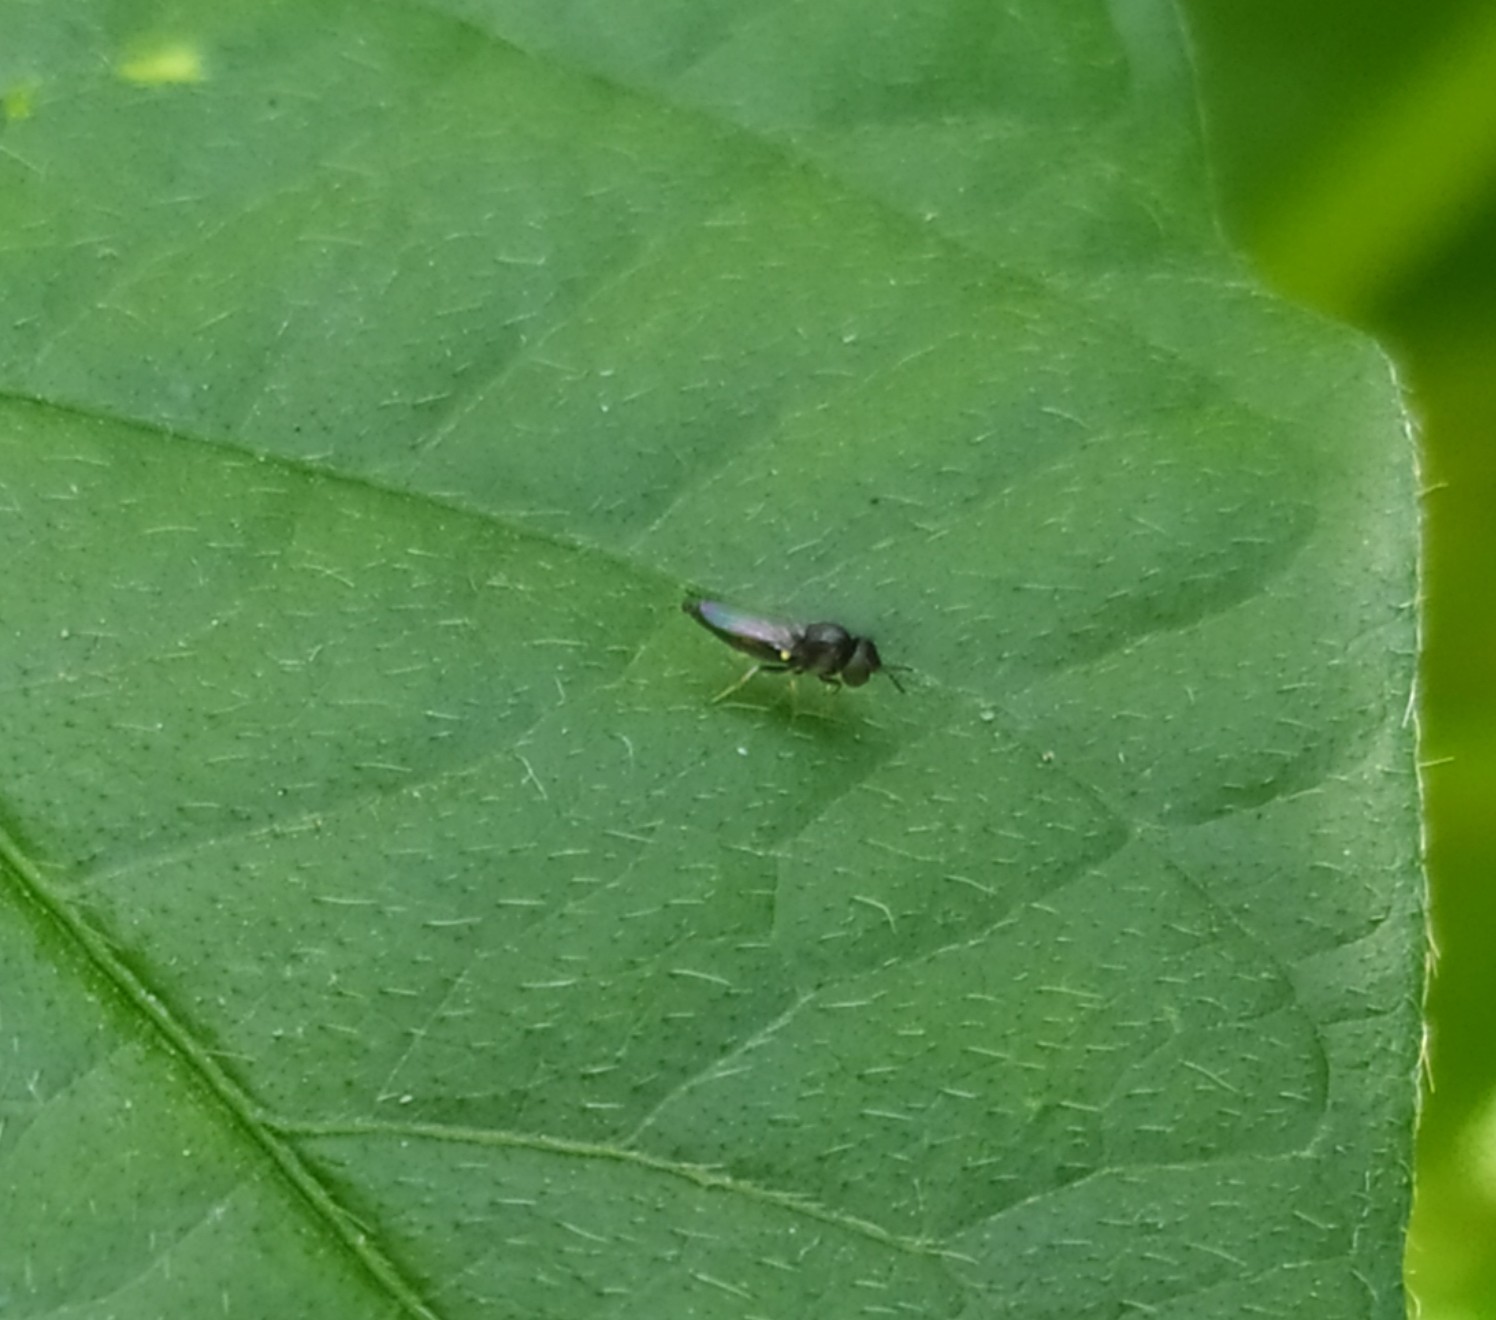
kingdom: Animalia
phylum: Arthropoda
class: Insecta
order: Diptera
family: Chloropidae
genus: Neoloxotaenia
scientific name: Neoloxotaenia gracilis
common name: Chloropid fly
